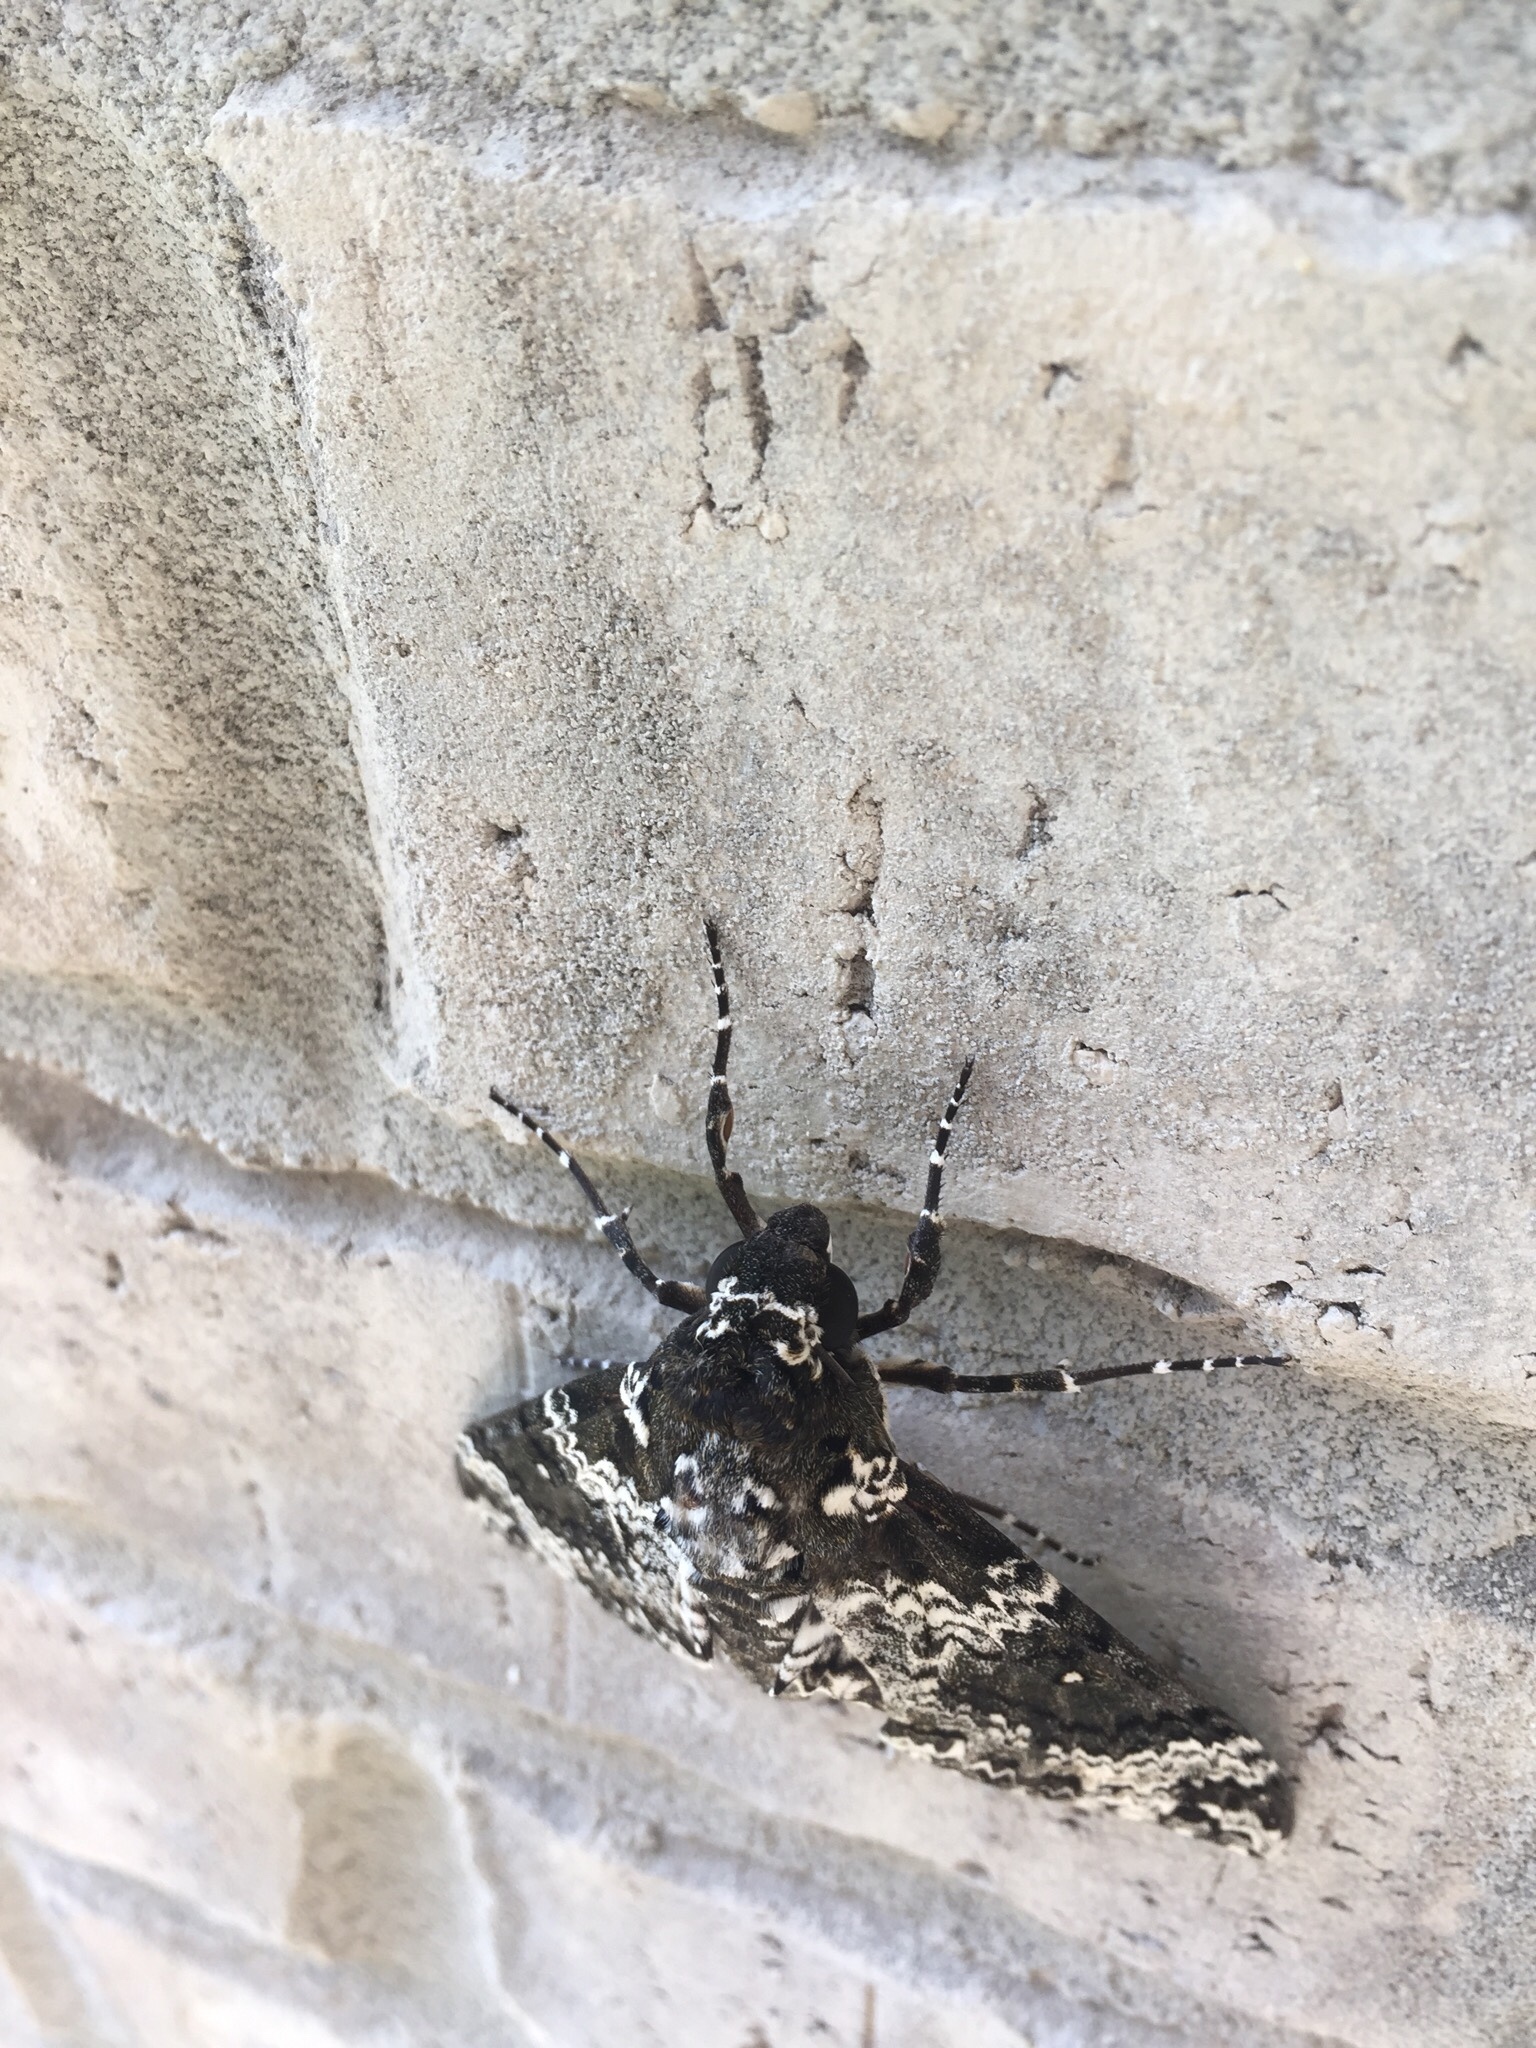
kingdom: Animalia
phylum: Arthropoda
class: Insecta
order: Lepidoptera
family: Sphingidae
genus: Manduca
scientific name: Manduca rustica
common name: Rustic sphinx
